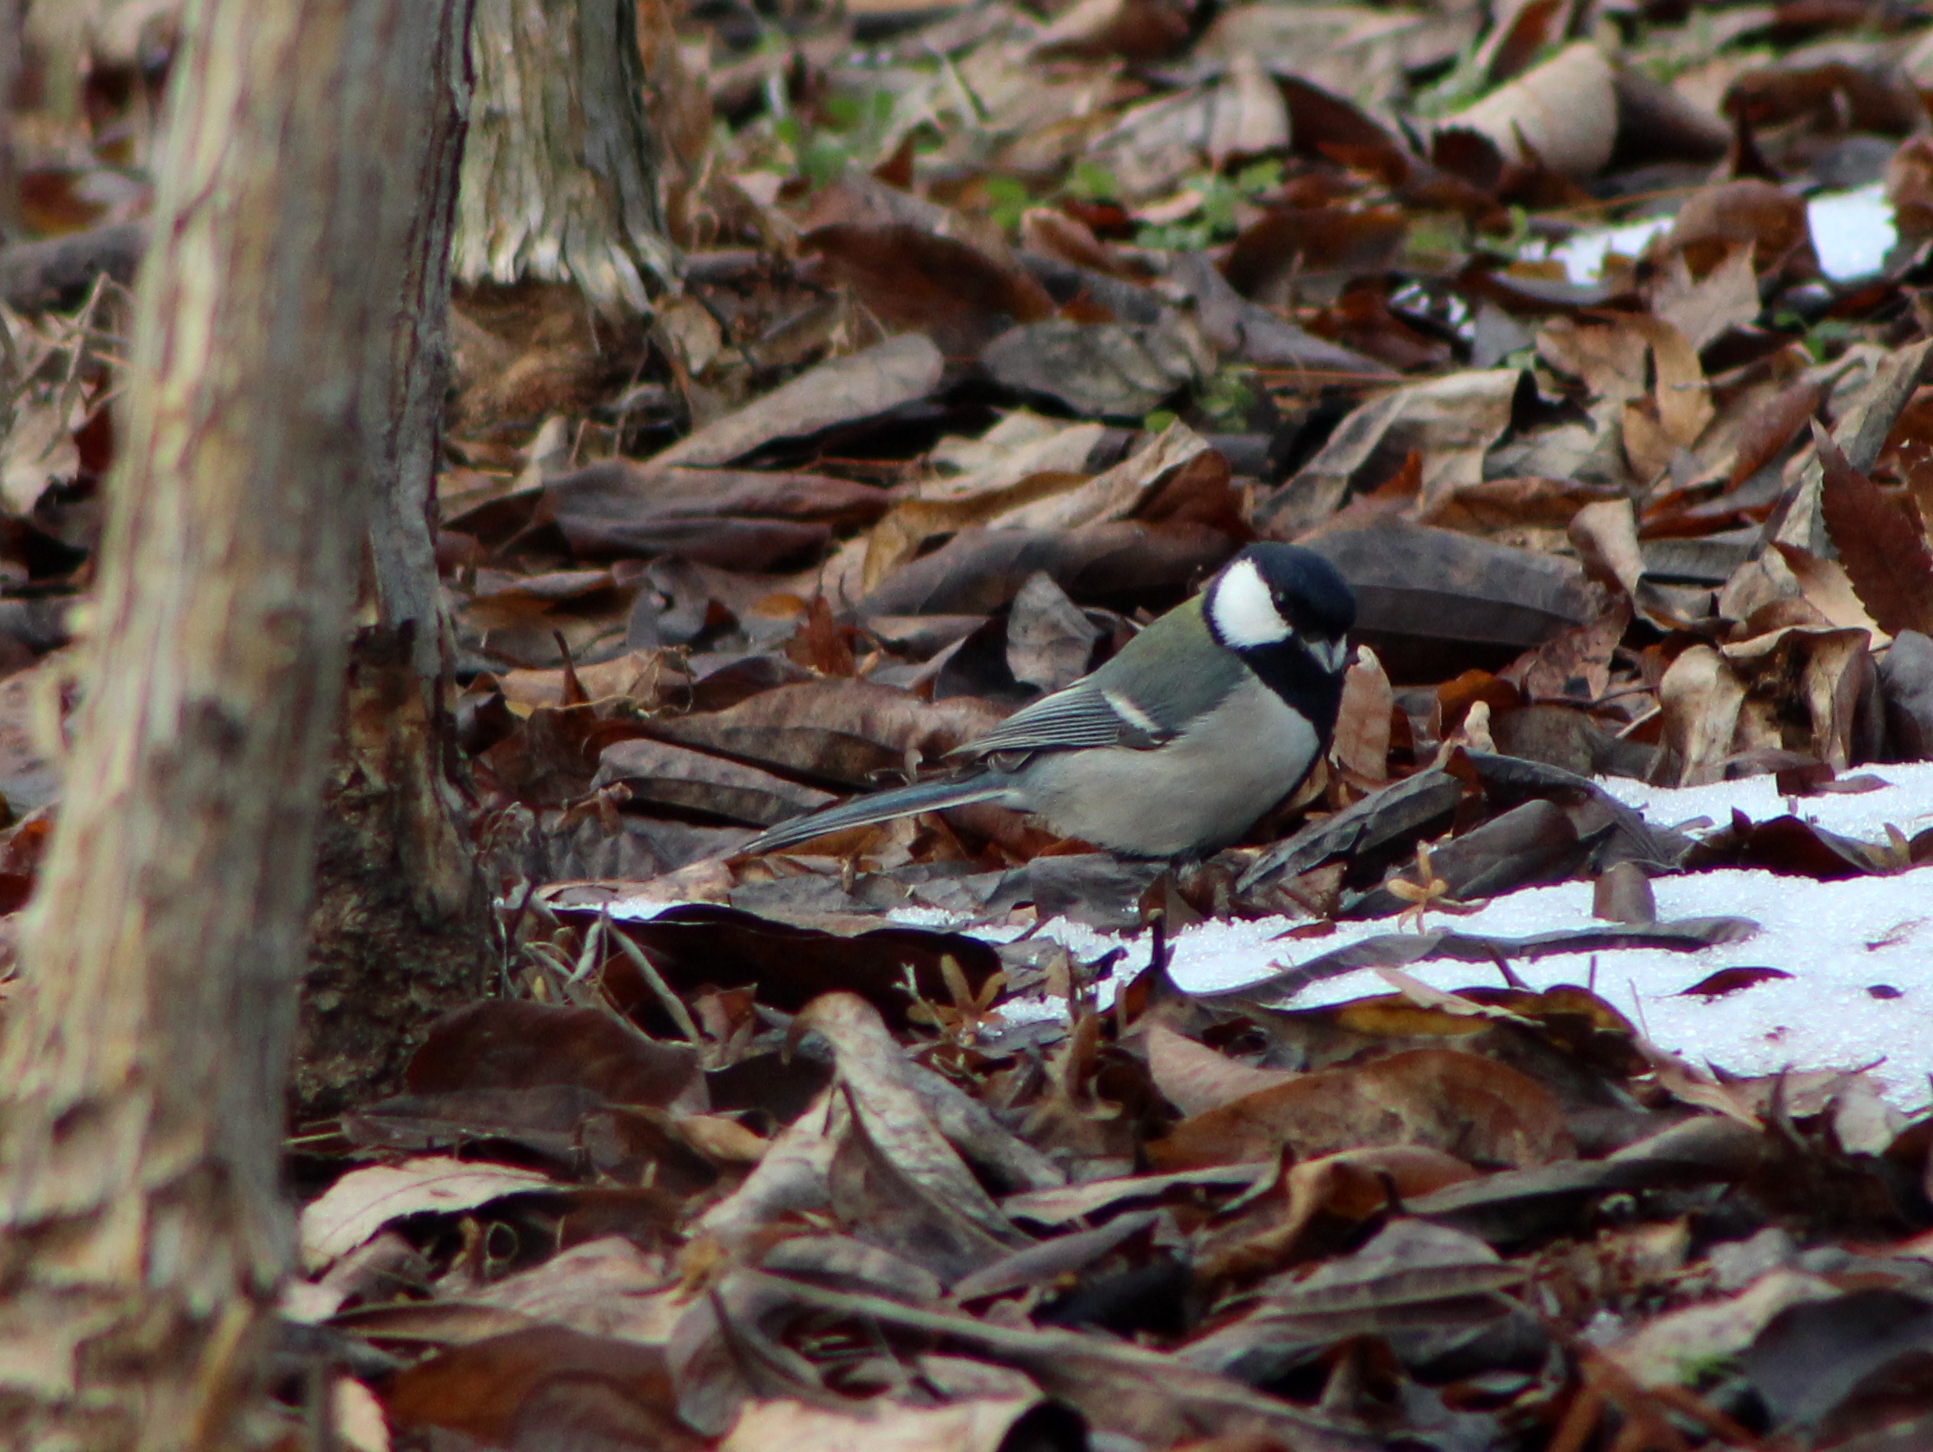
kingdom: Animalia
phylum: Chordata
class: Aves
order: Passeriformes
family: Paridae
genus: Parus
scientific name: Parus minor
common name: Japanese tit
